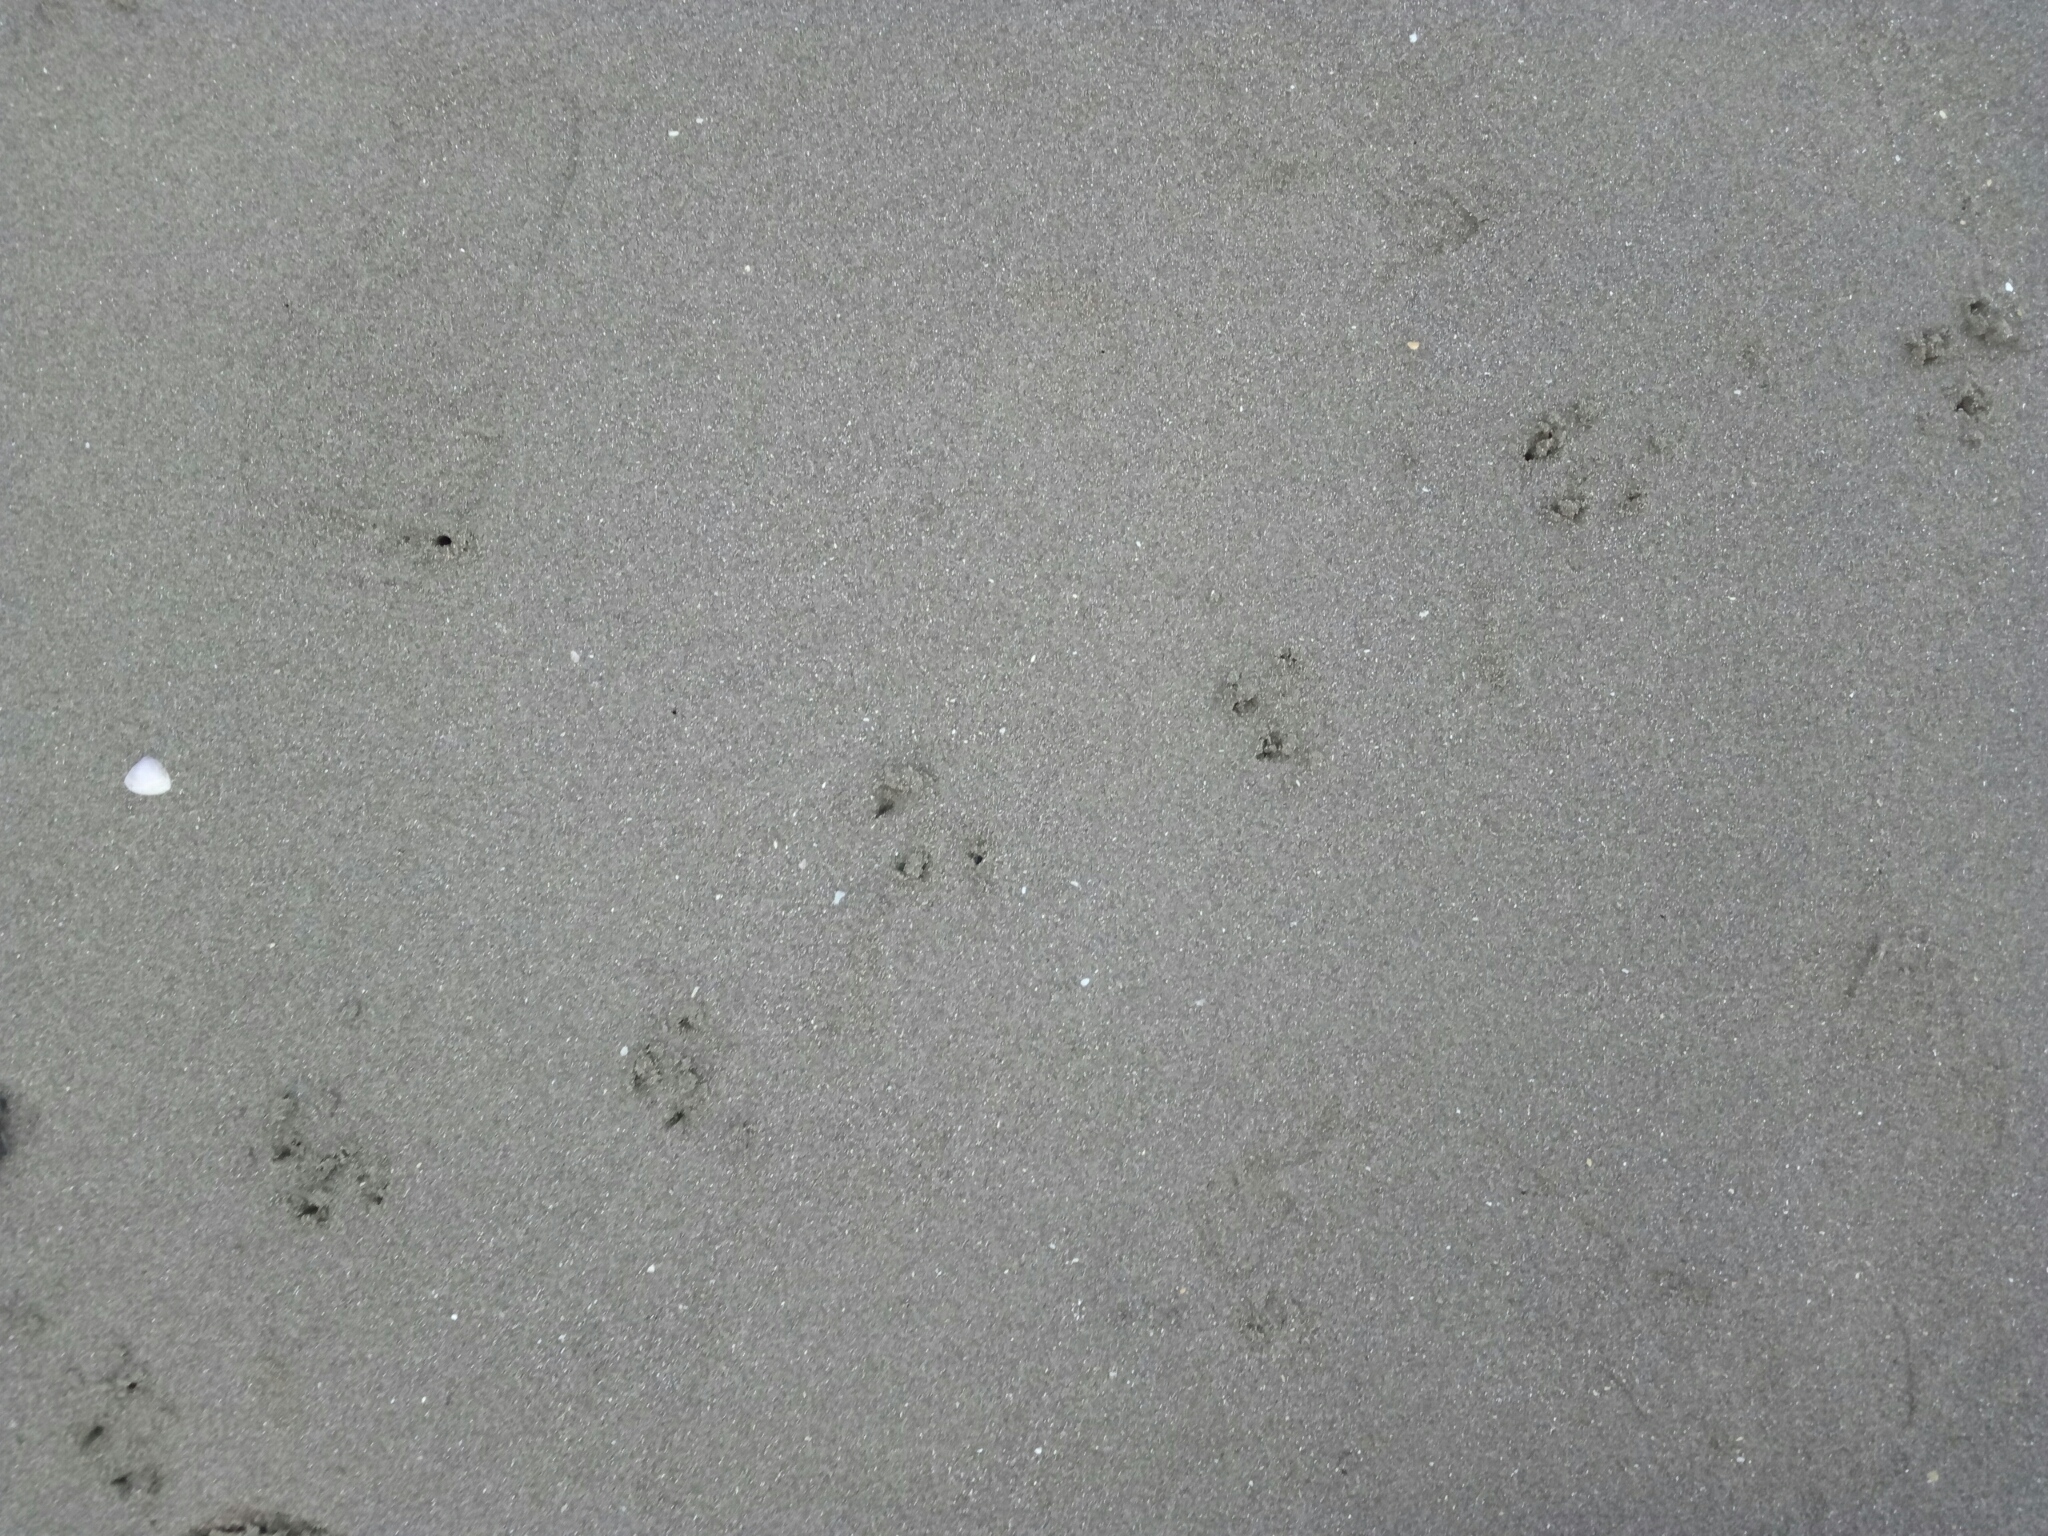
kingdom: Animalia
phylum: Chordata
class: Aves
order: Sphenisciformes
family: Spheniscidae
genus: Eudyptula
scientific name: Eudyptula minor
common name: Little penguin
